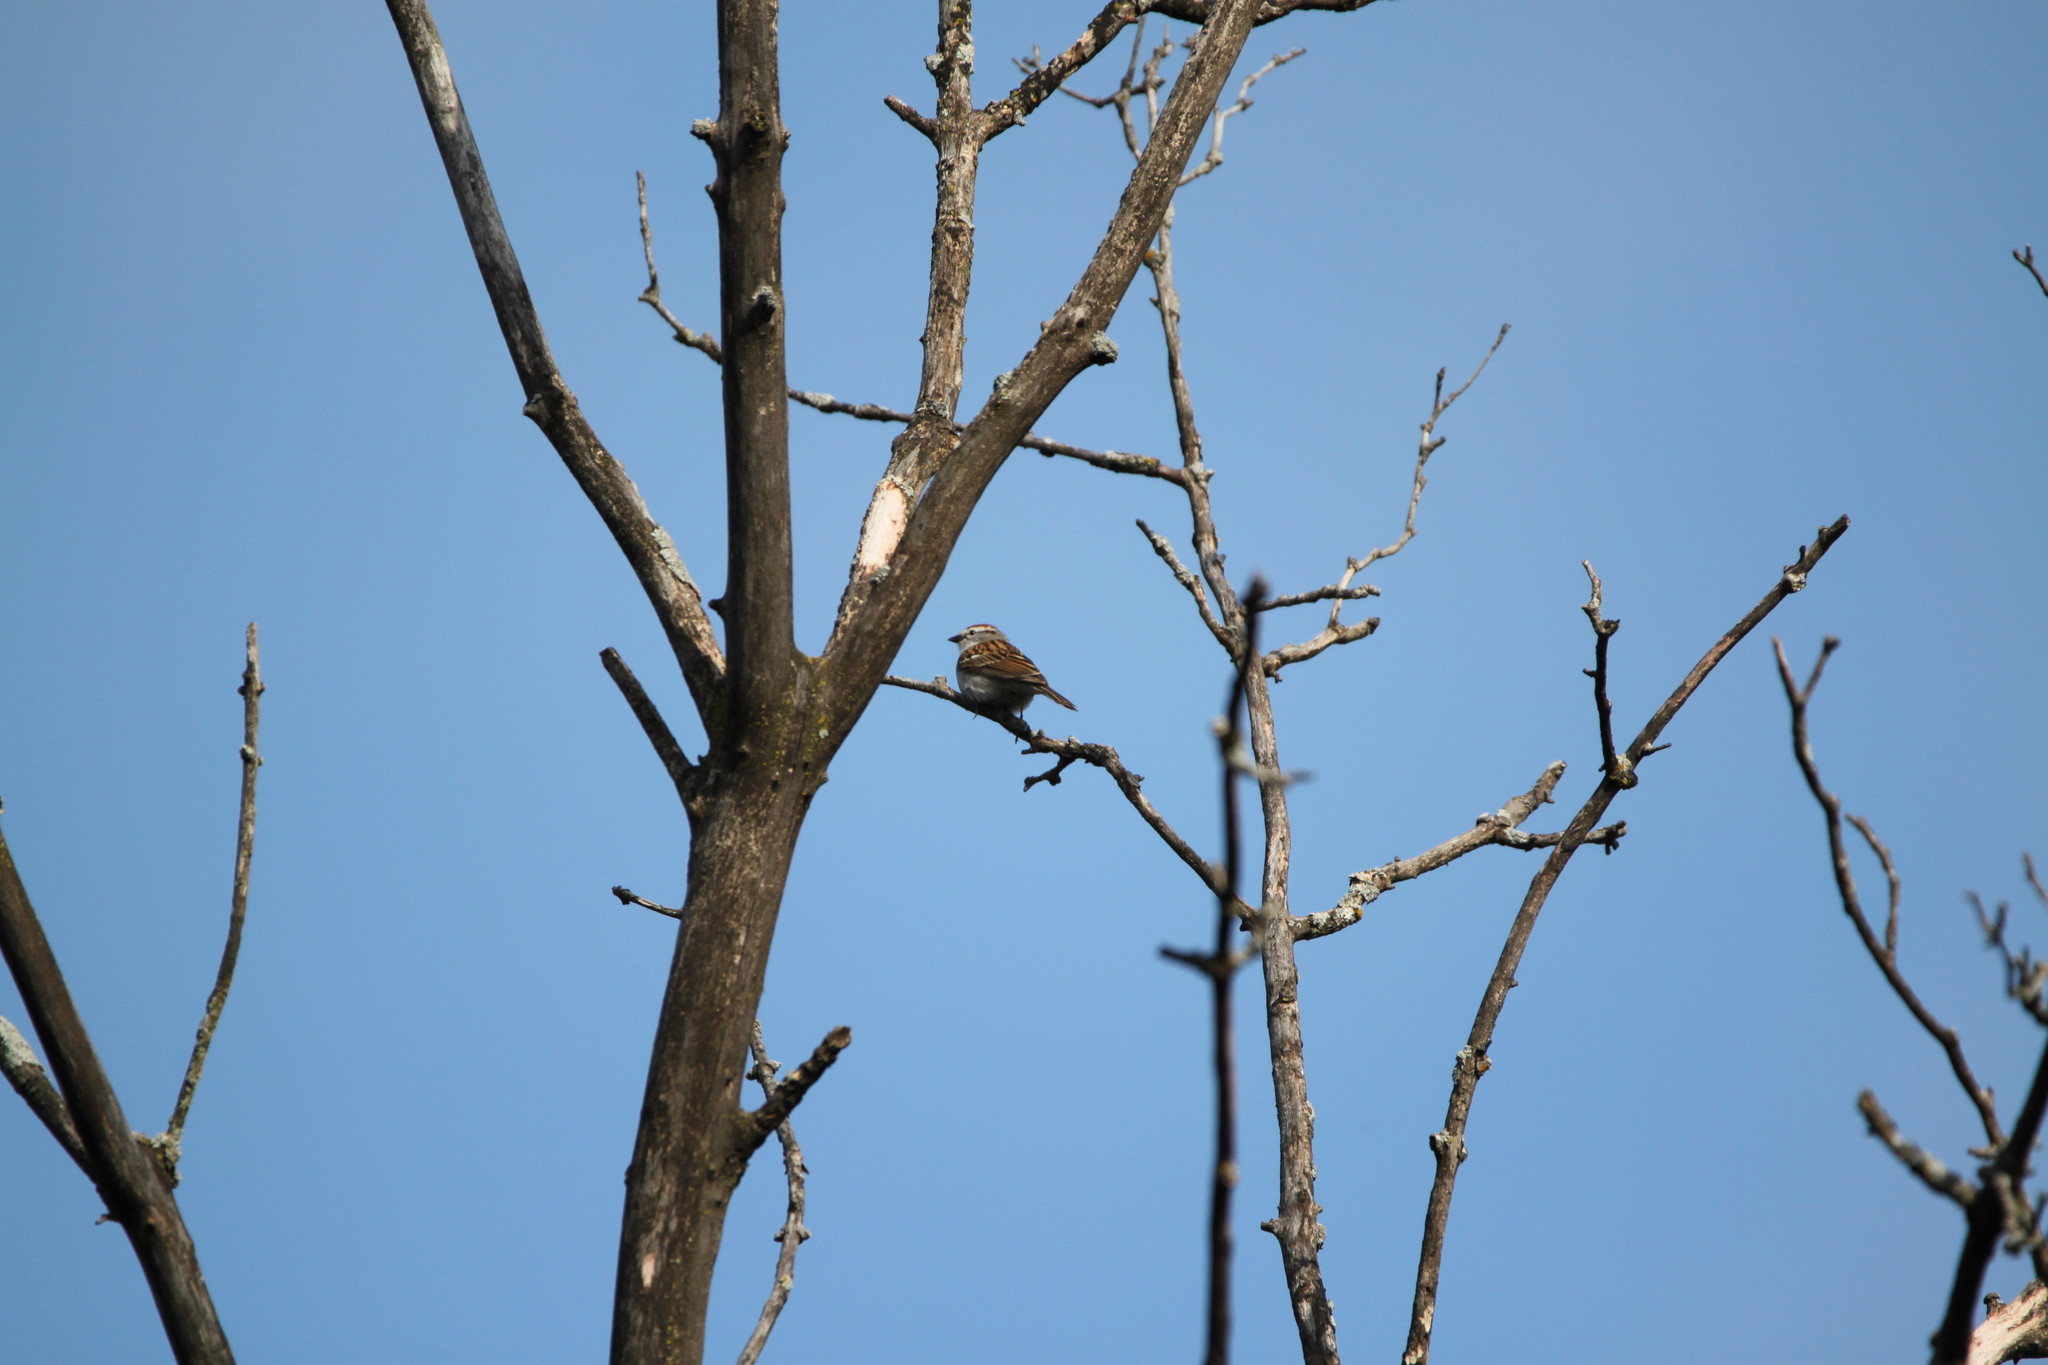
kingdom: Animalia
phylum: Chordata
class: Aves
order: Passeriformes
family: Passerellidae
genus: Spizella
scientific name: Spizella passerina
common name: Chipping sparrow
